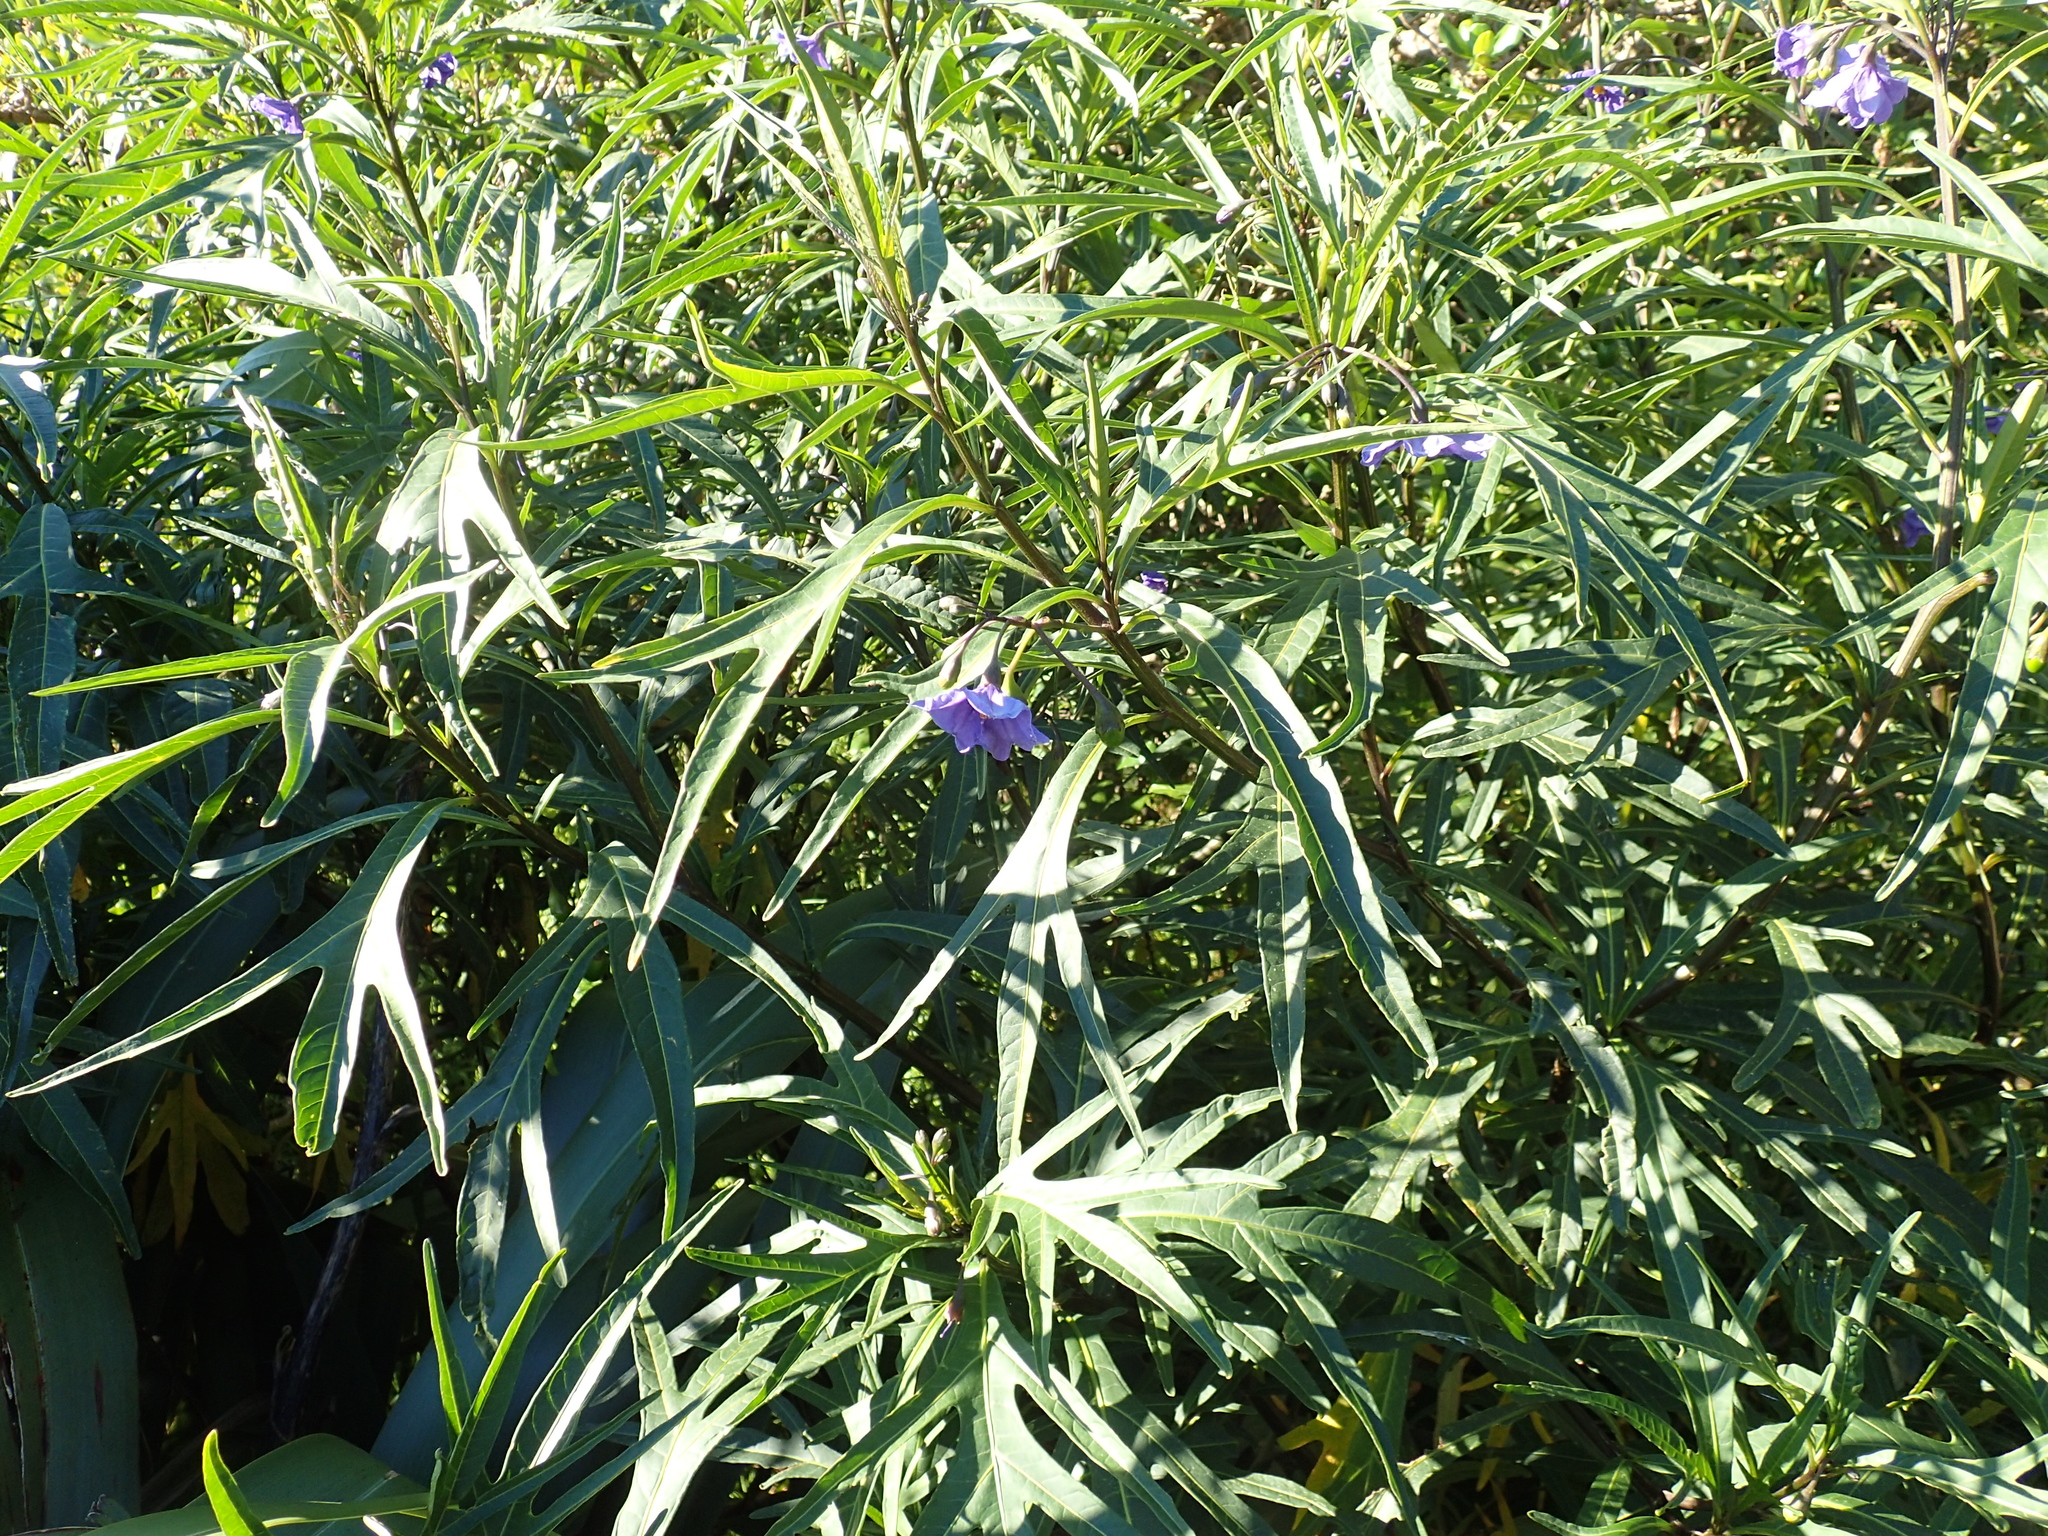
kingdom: Plantae
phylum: Tracheophyta
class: Magnoliopsida
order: Solanales
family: Solanaceae
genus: Solanum
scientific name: Solanum laciniatum
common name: Kangaroo-apple
